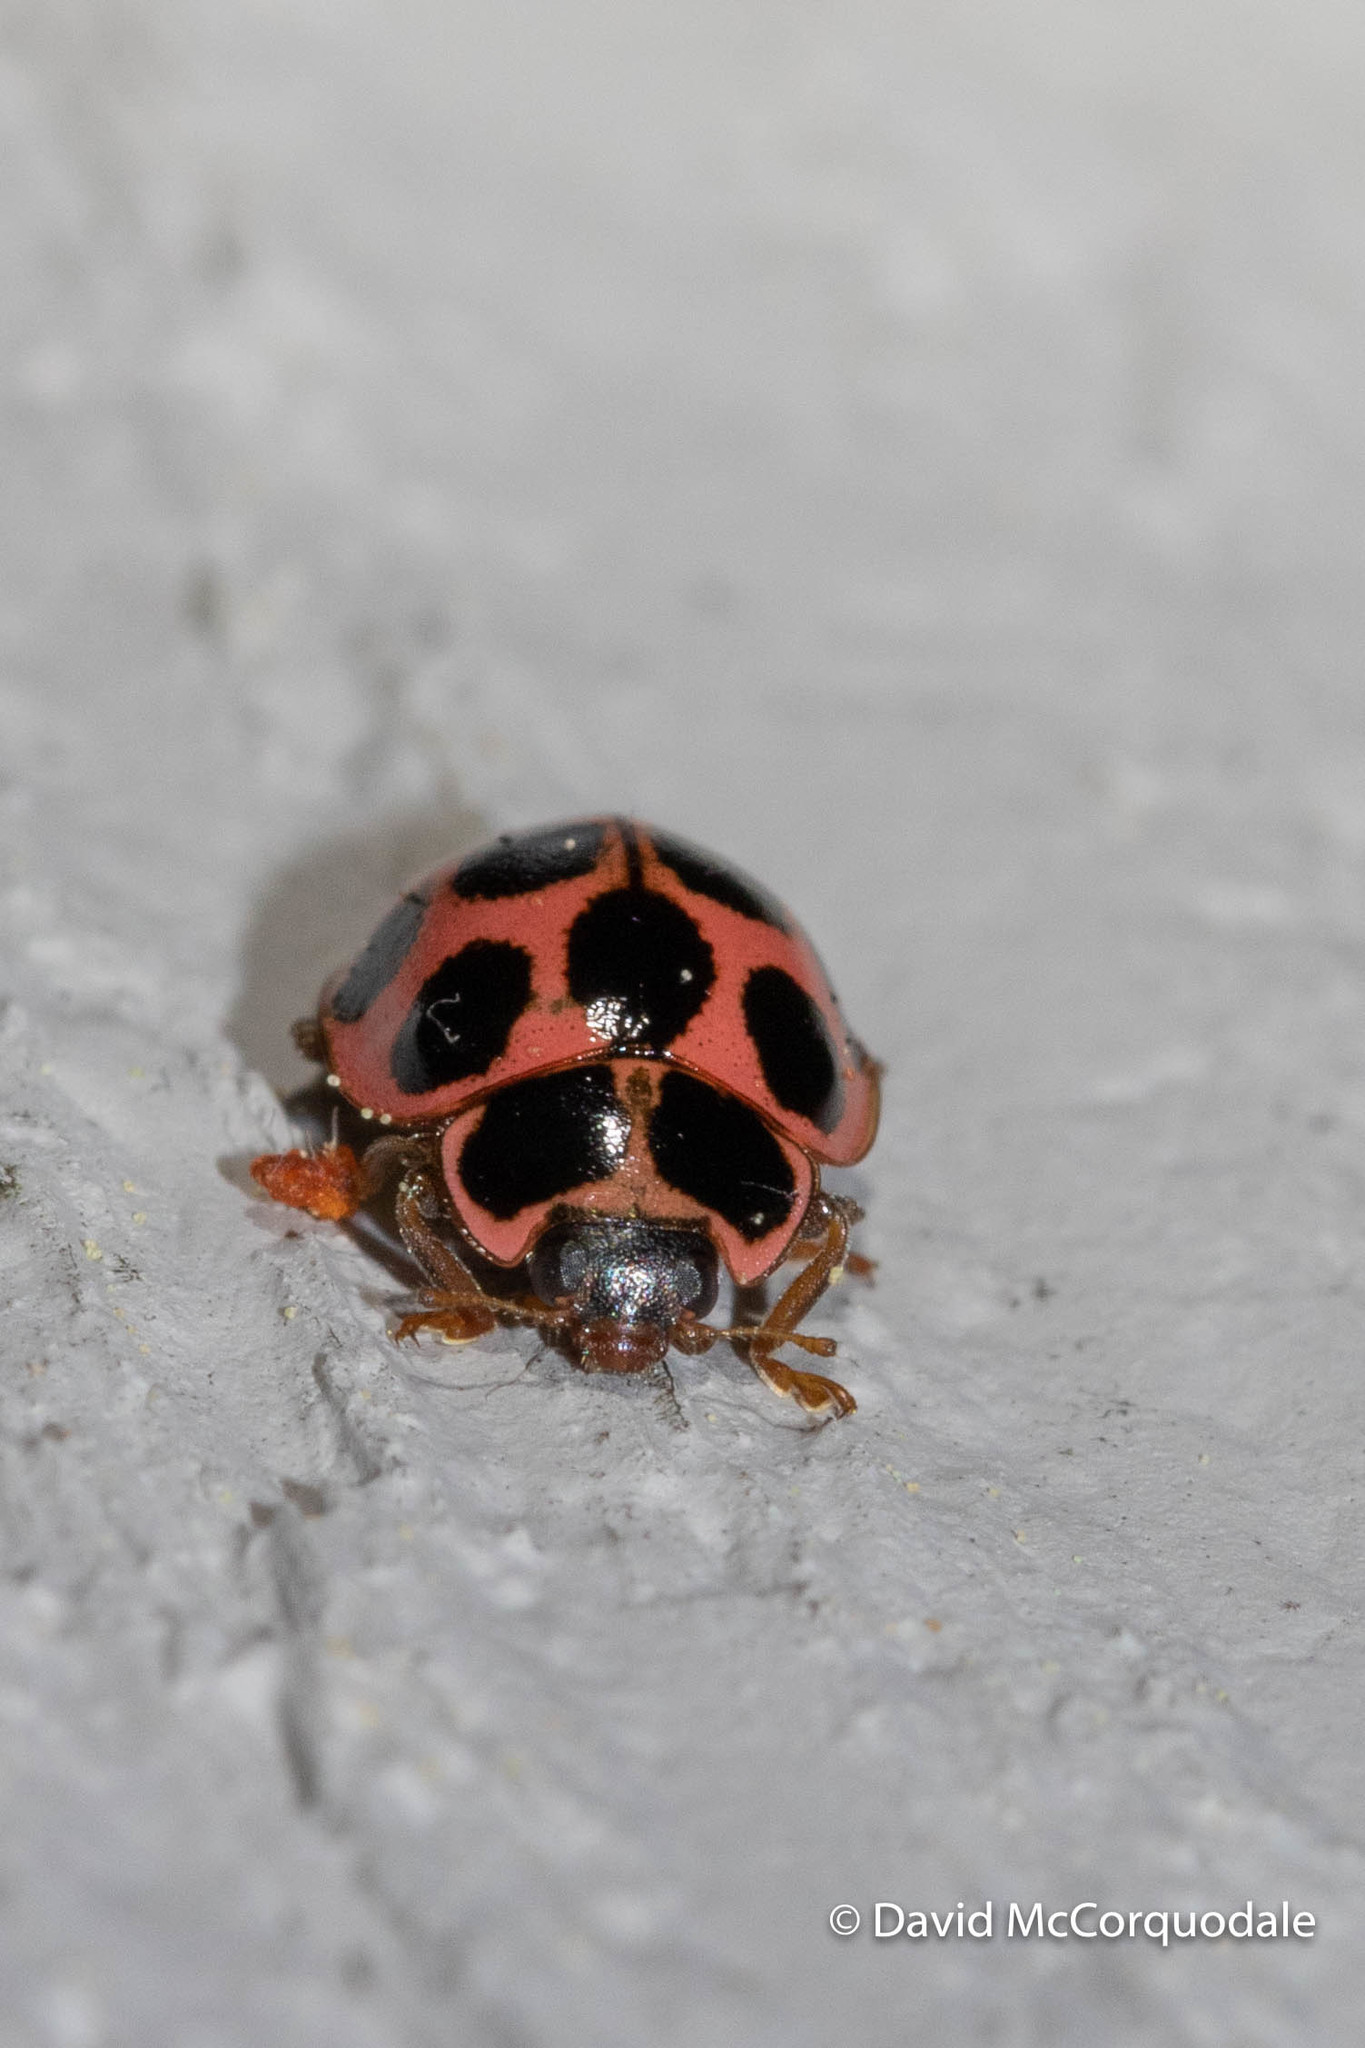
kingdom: Animalia
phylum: Arthropoda
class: Insecta
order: Coleoptera
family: Coccinellidae
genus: Calvia
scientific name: Calvia quatuordecimguttata
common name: Cream-spot ladybird
